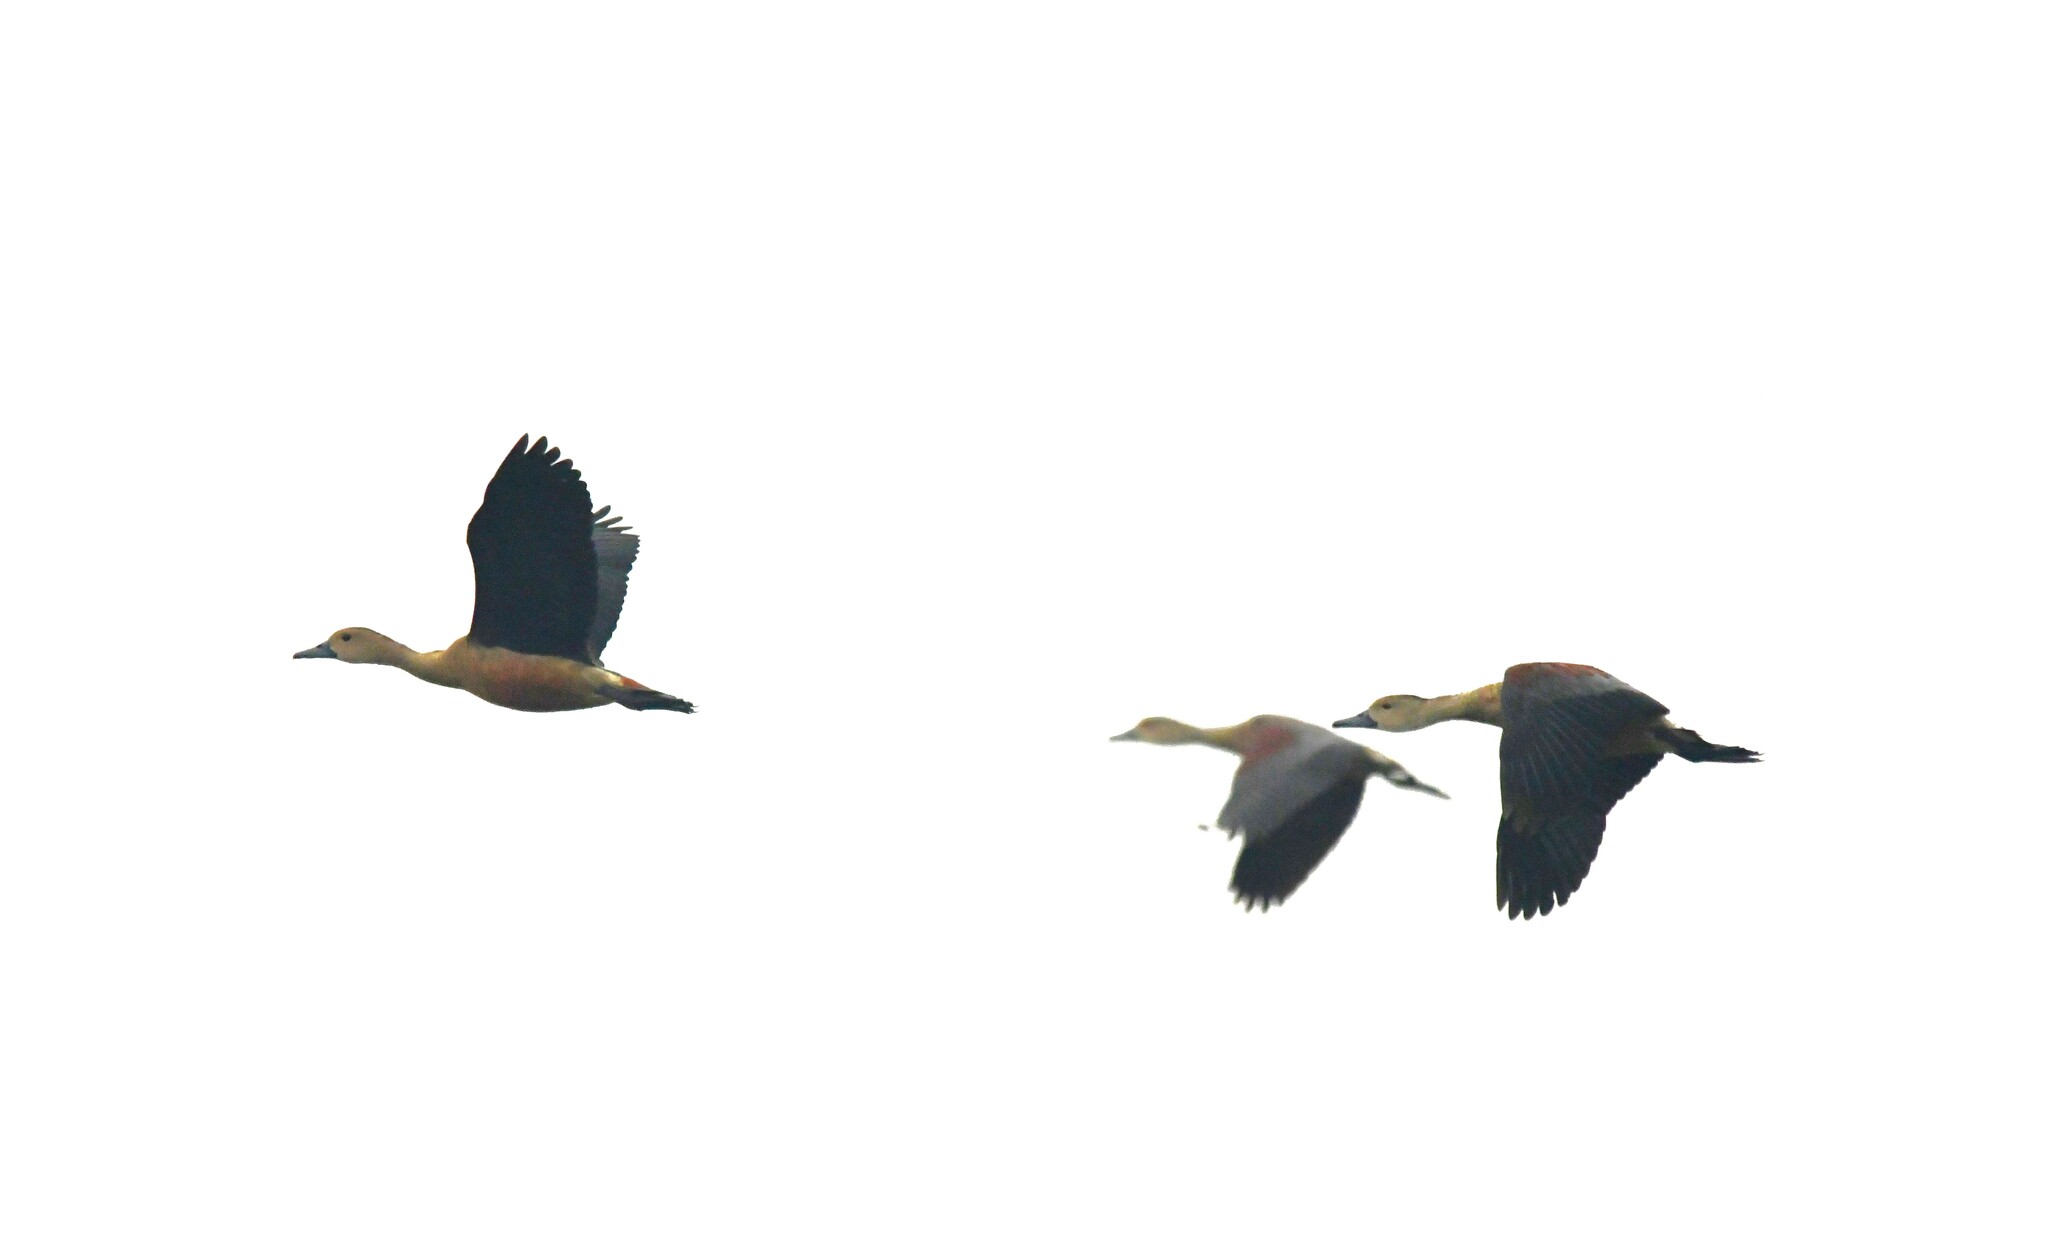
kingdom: Animalia
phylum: Chordata
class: Aves
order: Anseriformes
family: Anatidae
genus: Dendrocygna
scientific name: Dendrocygna javanica
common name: Lesser whistling-duck
